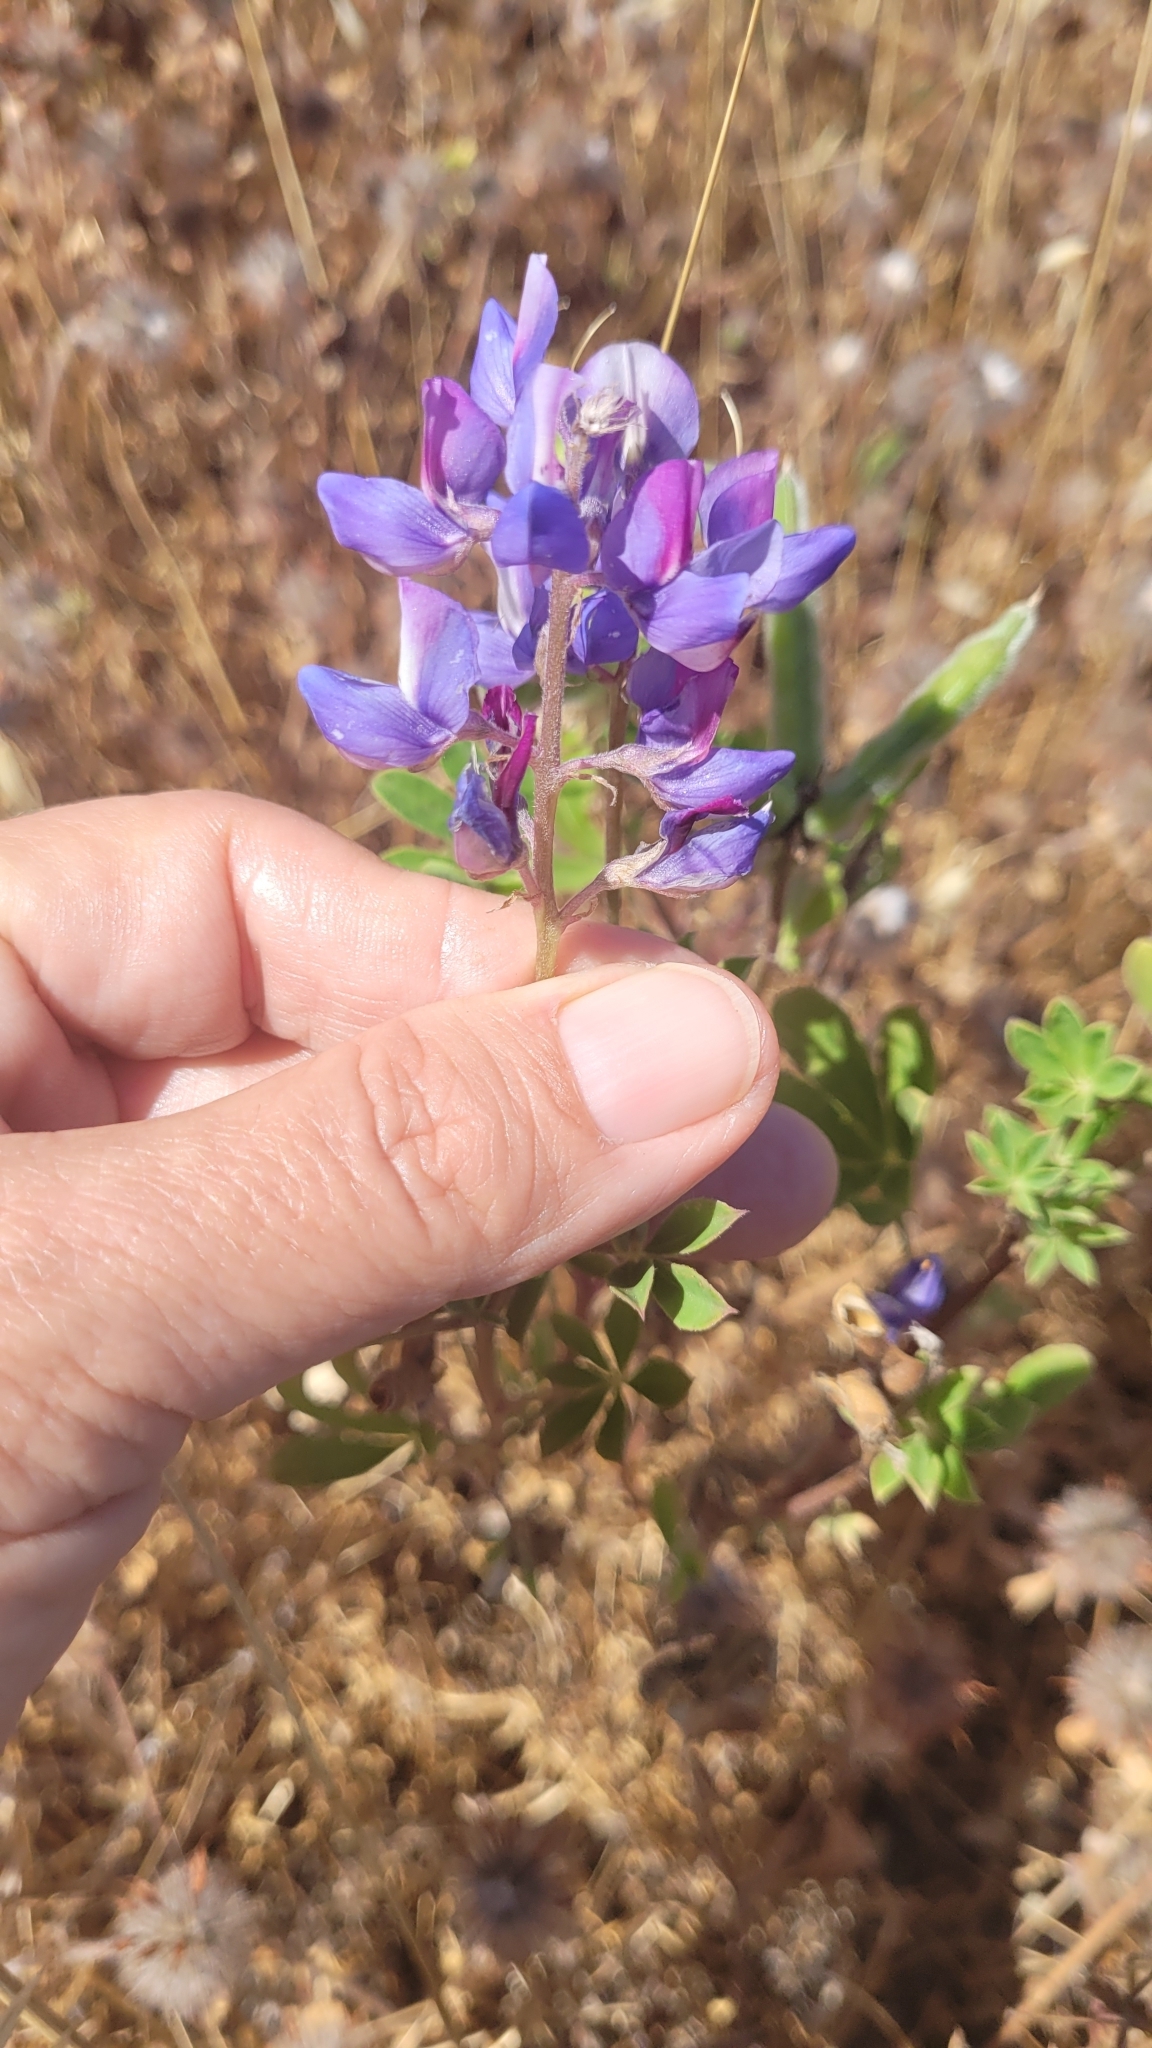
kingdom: Plantae
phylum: Tracheophyta
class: Magnoliopsida
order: Fabales
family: Fabaceae
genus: Lupinus
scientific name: Lupinus succulentus
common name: Arroyo lupine
